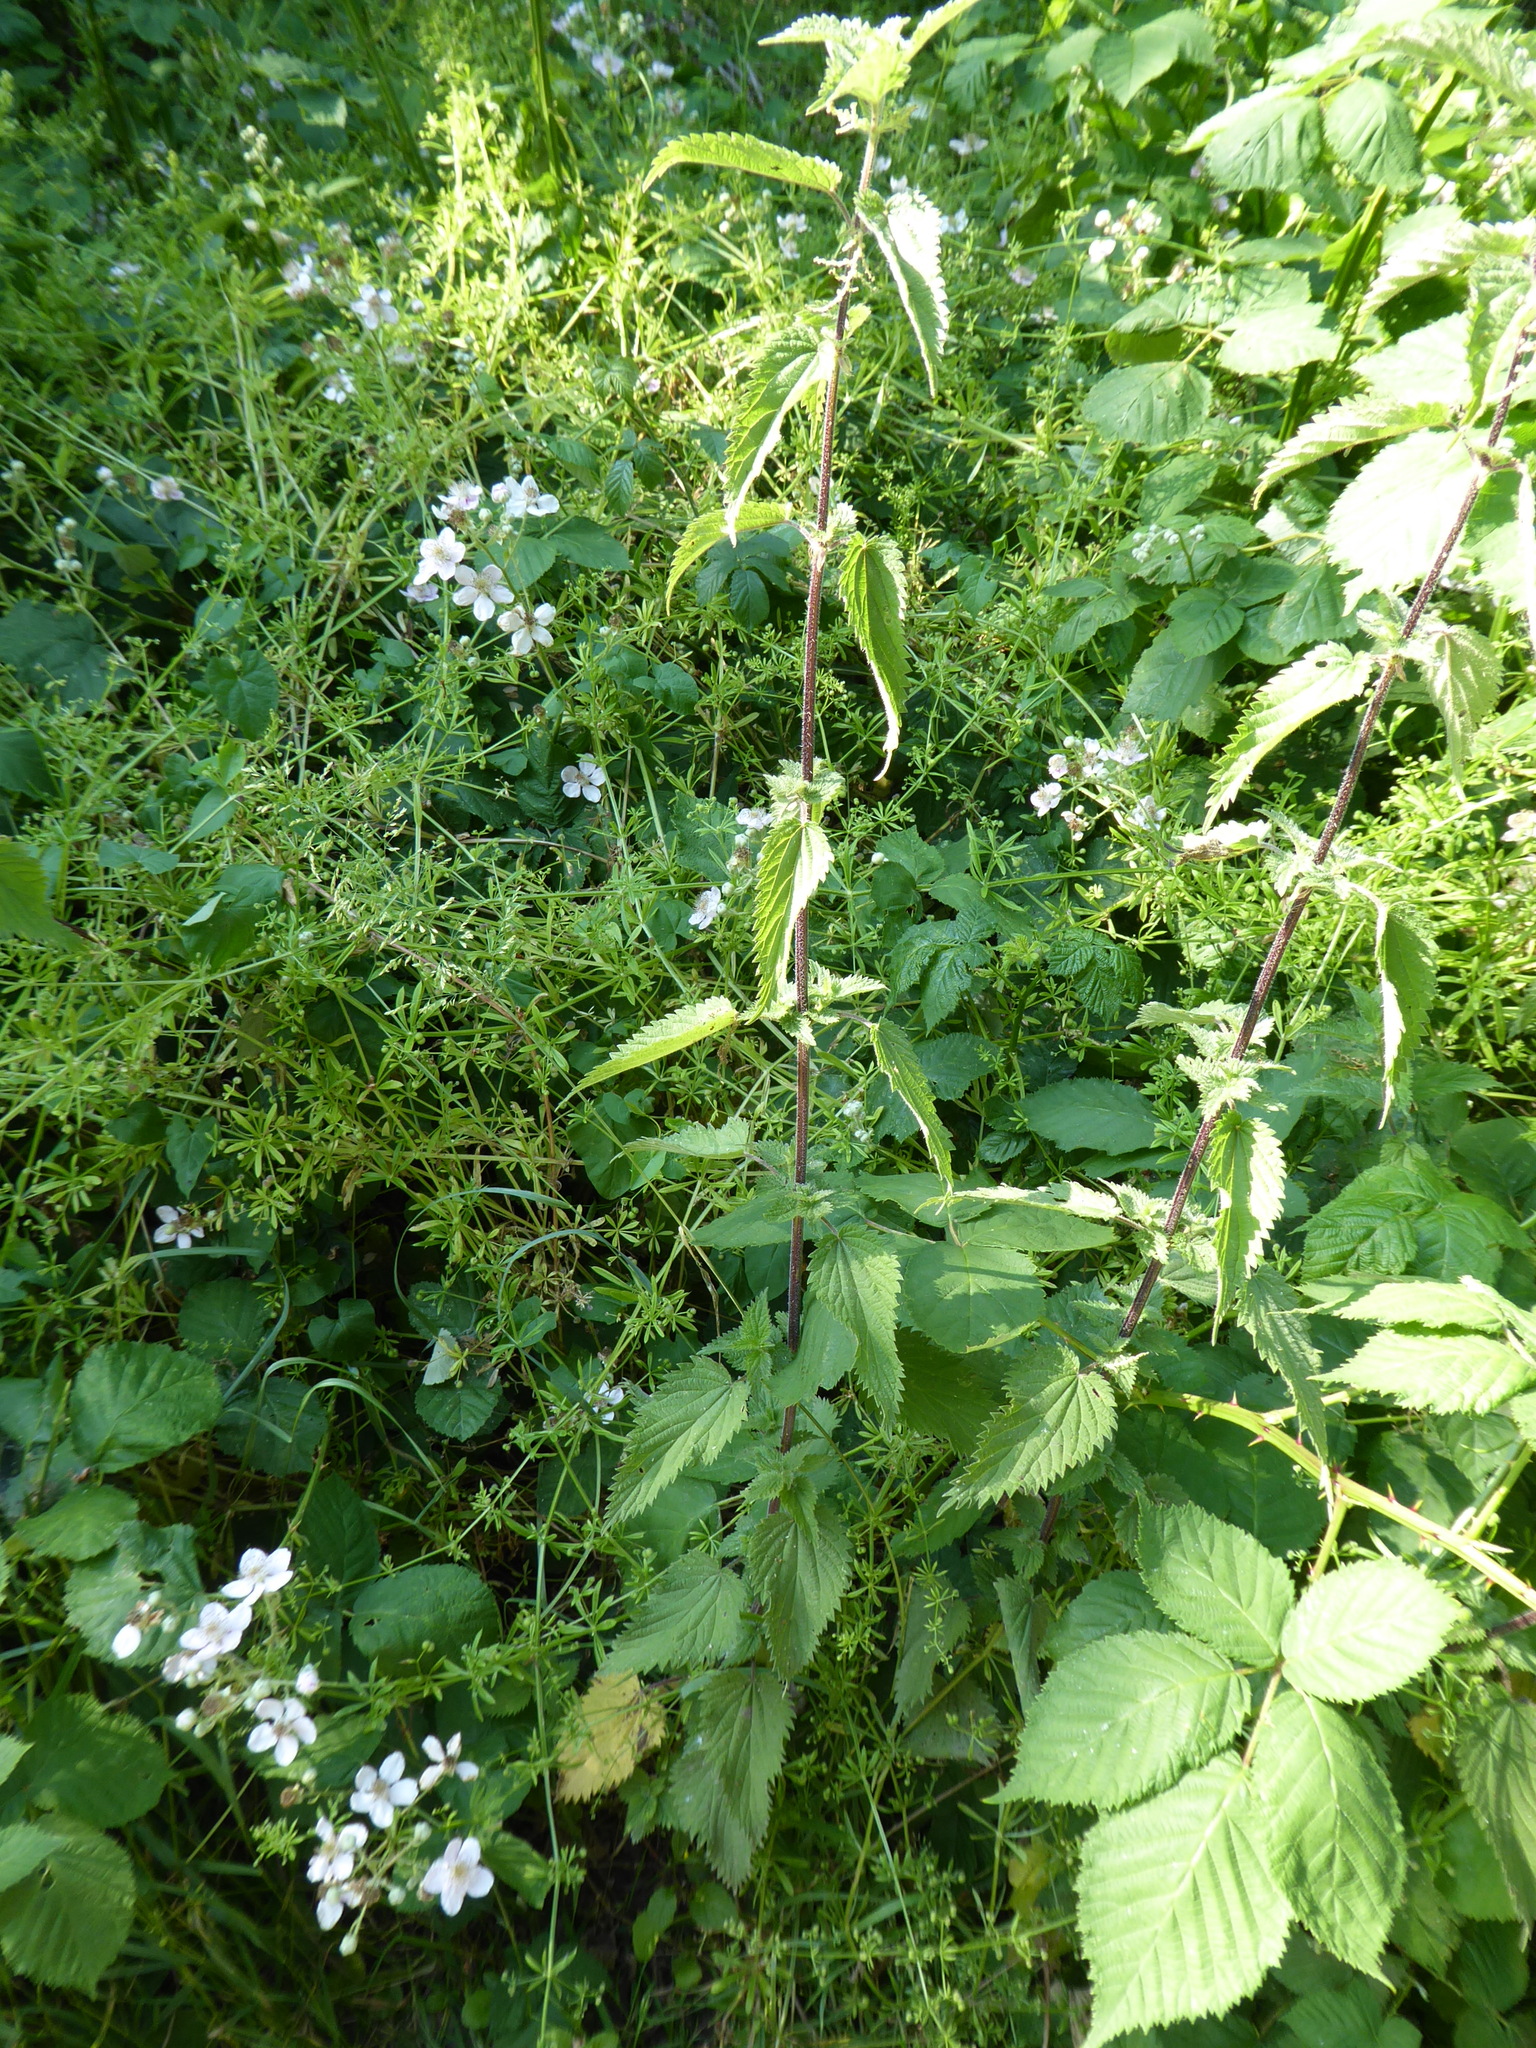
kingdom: Plantae
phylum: Tracheophyta
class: Magnoliopsida
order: Rosales
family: Urticaceae
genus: Urtica
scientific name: Urtica dioica
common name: Common nettle
